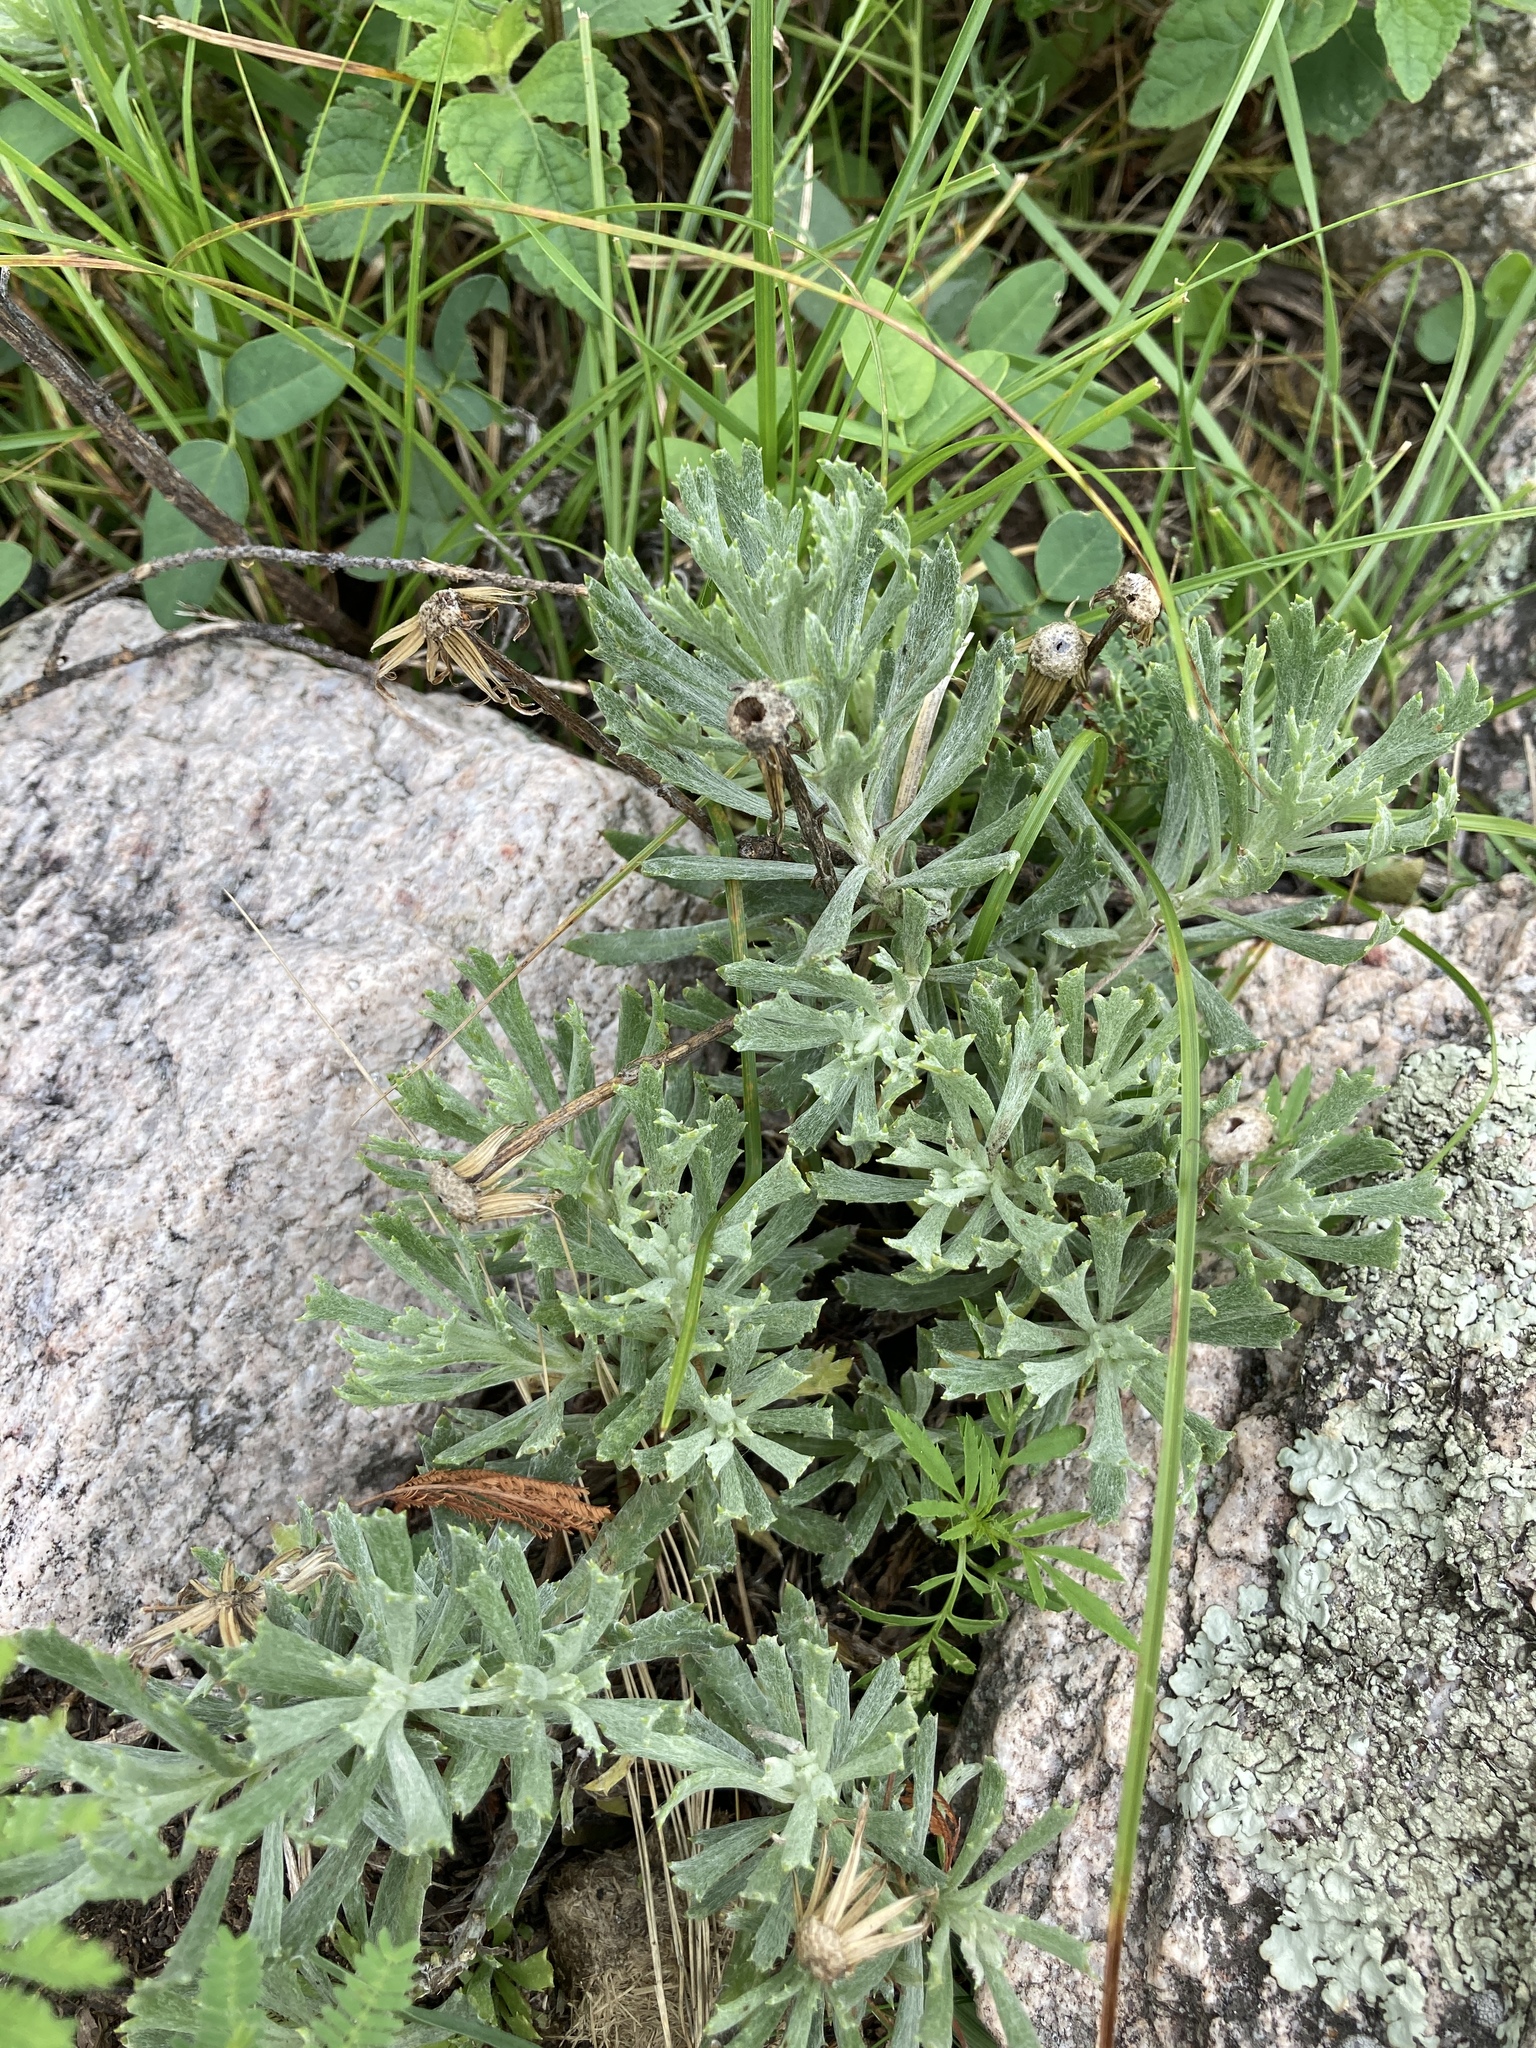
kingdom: Plantae
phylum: Tracheophyta
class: Magnoliopsida
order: Asterales
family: Asteraceae
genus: Senecio
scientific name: Senecio ceratophylloides
